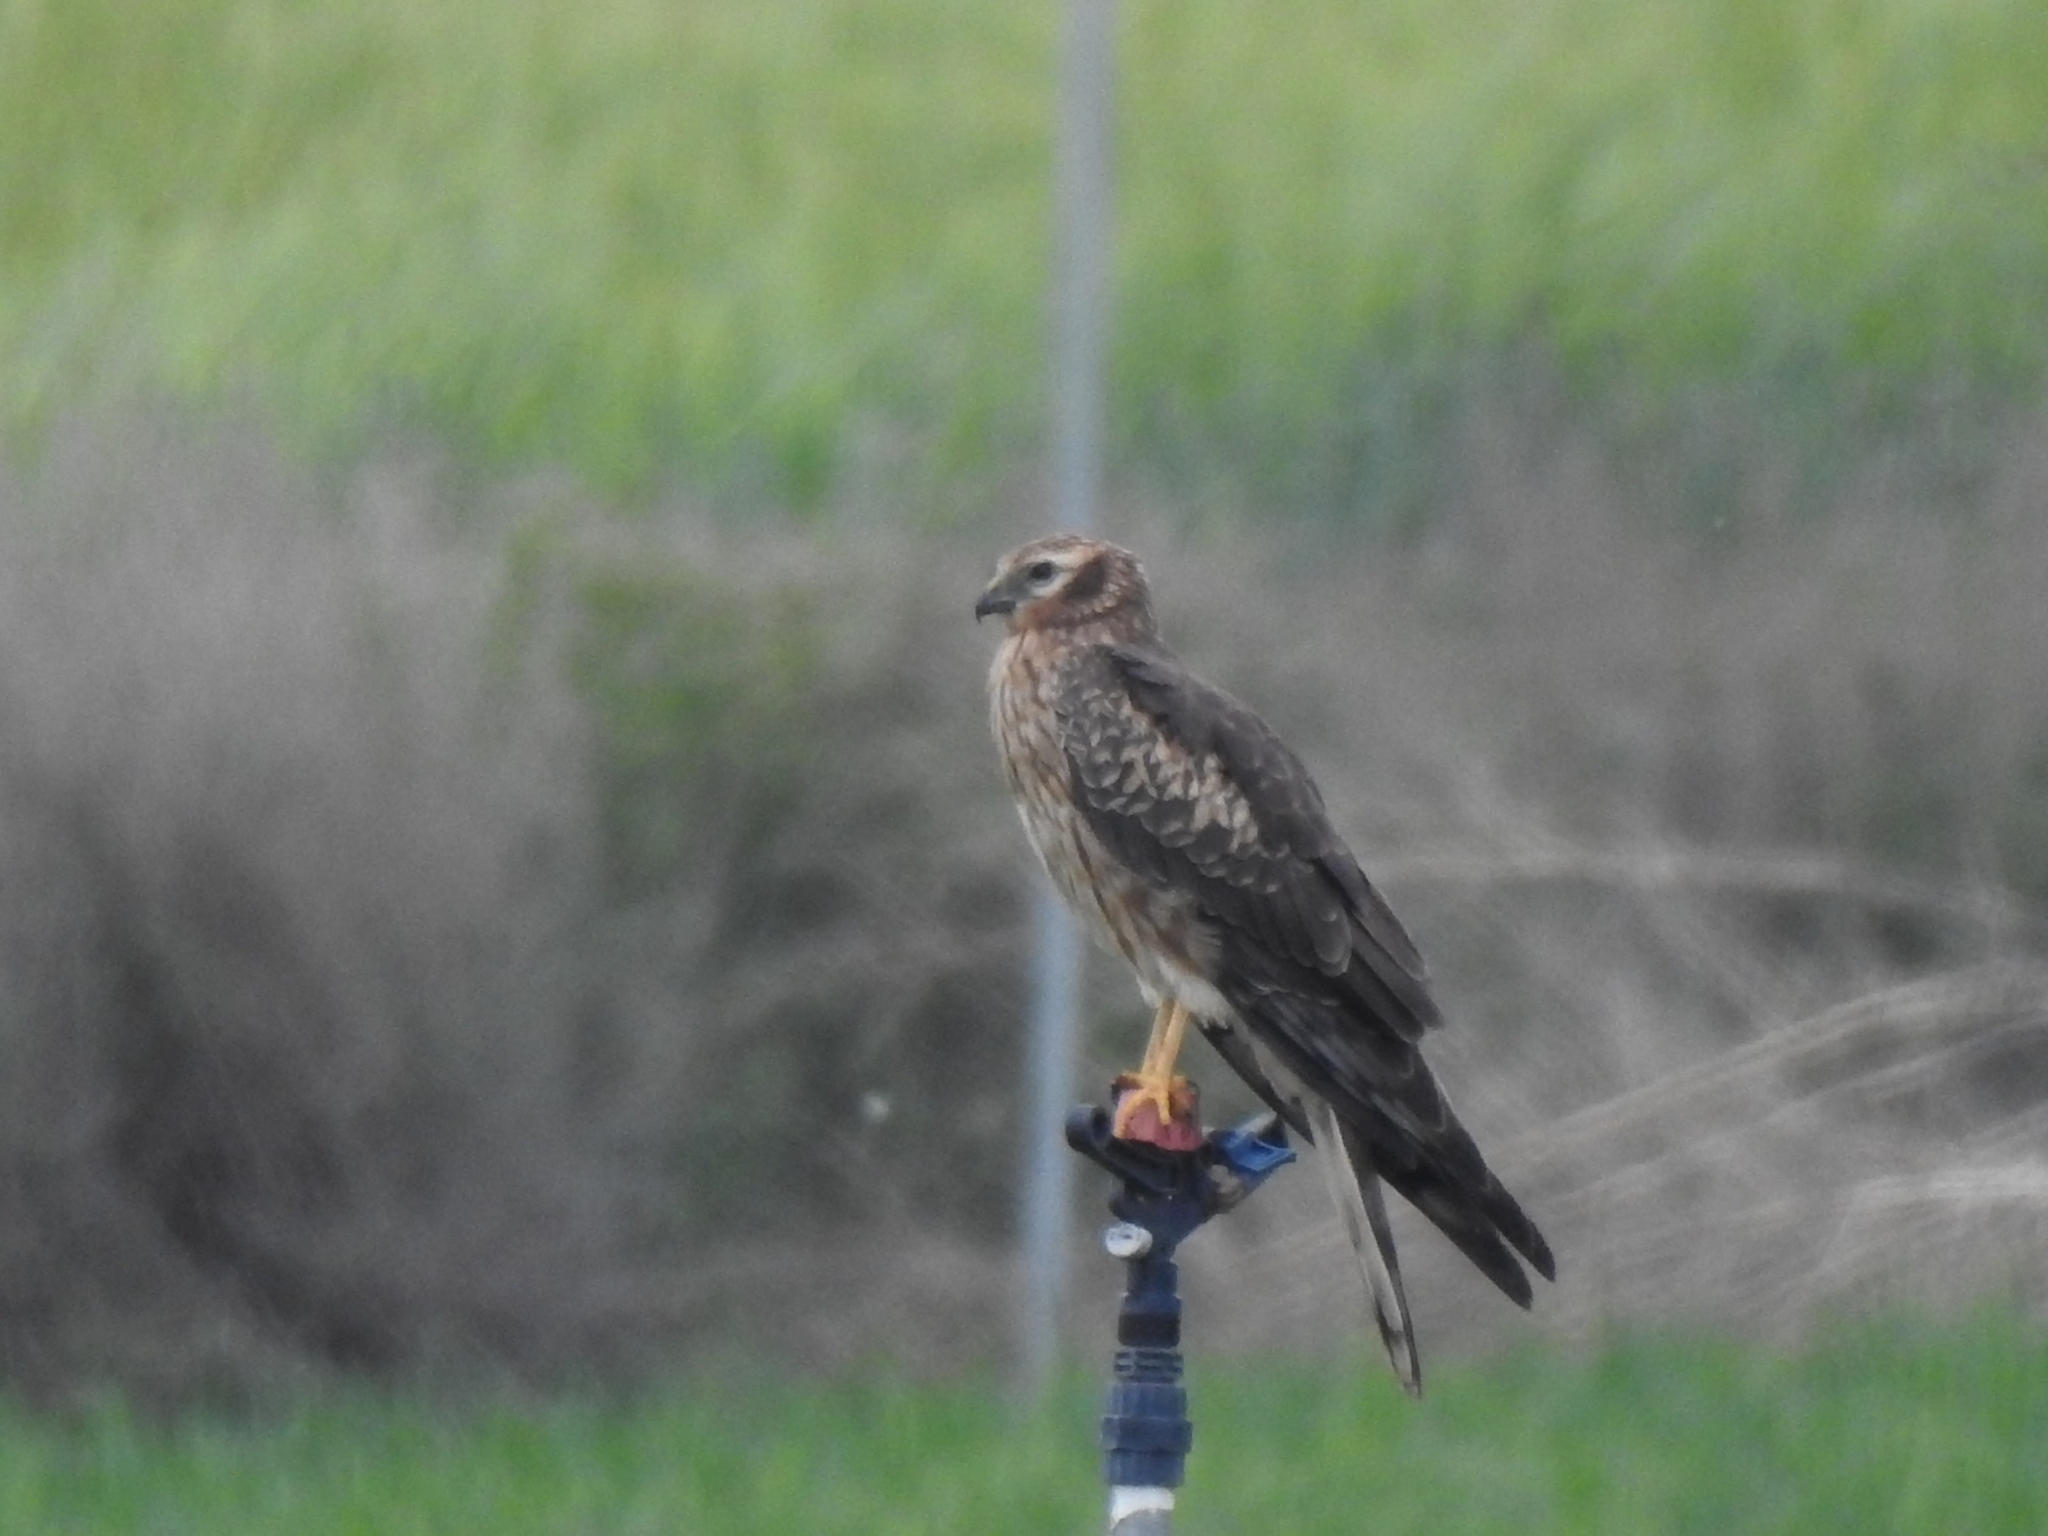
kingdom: Animalia
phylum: Chordata
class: Aves
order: Accipitriformes
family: Accipitridae
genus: Circus
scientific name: Circus pygargus
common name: Montagu's harrier
